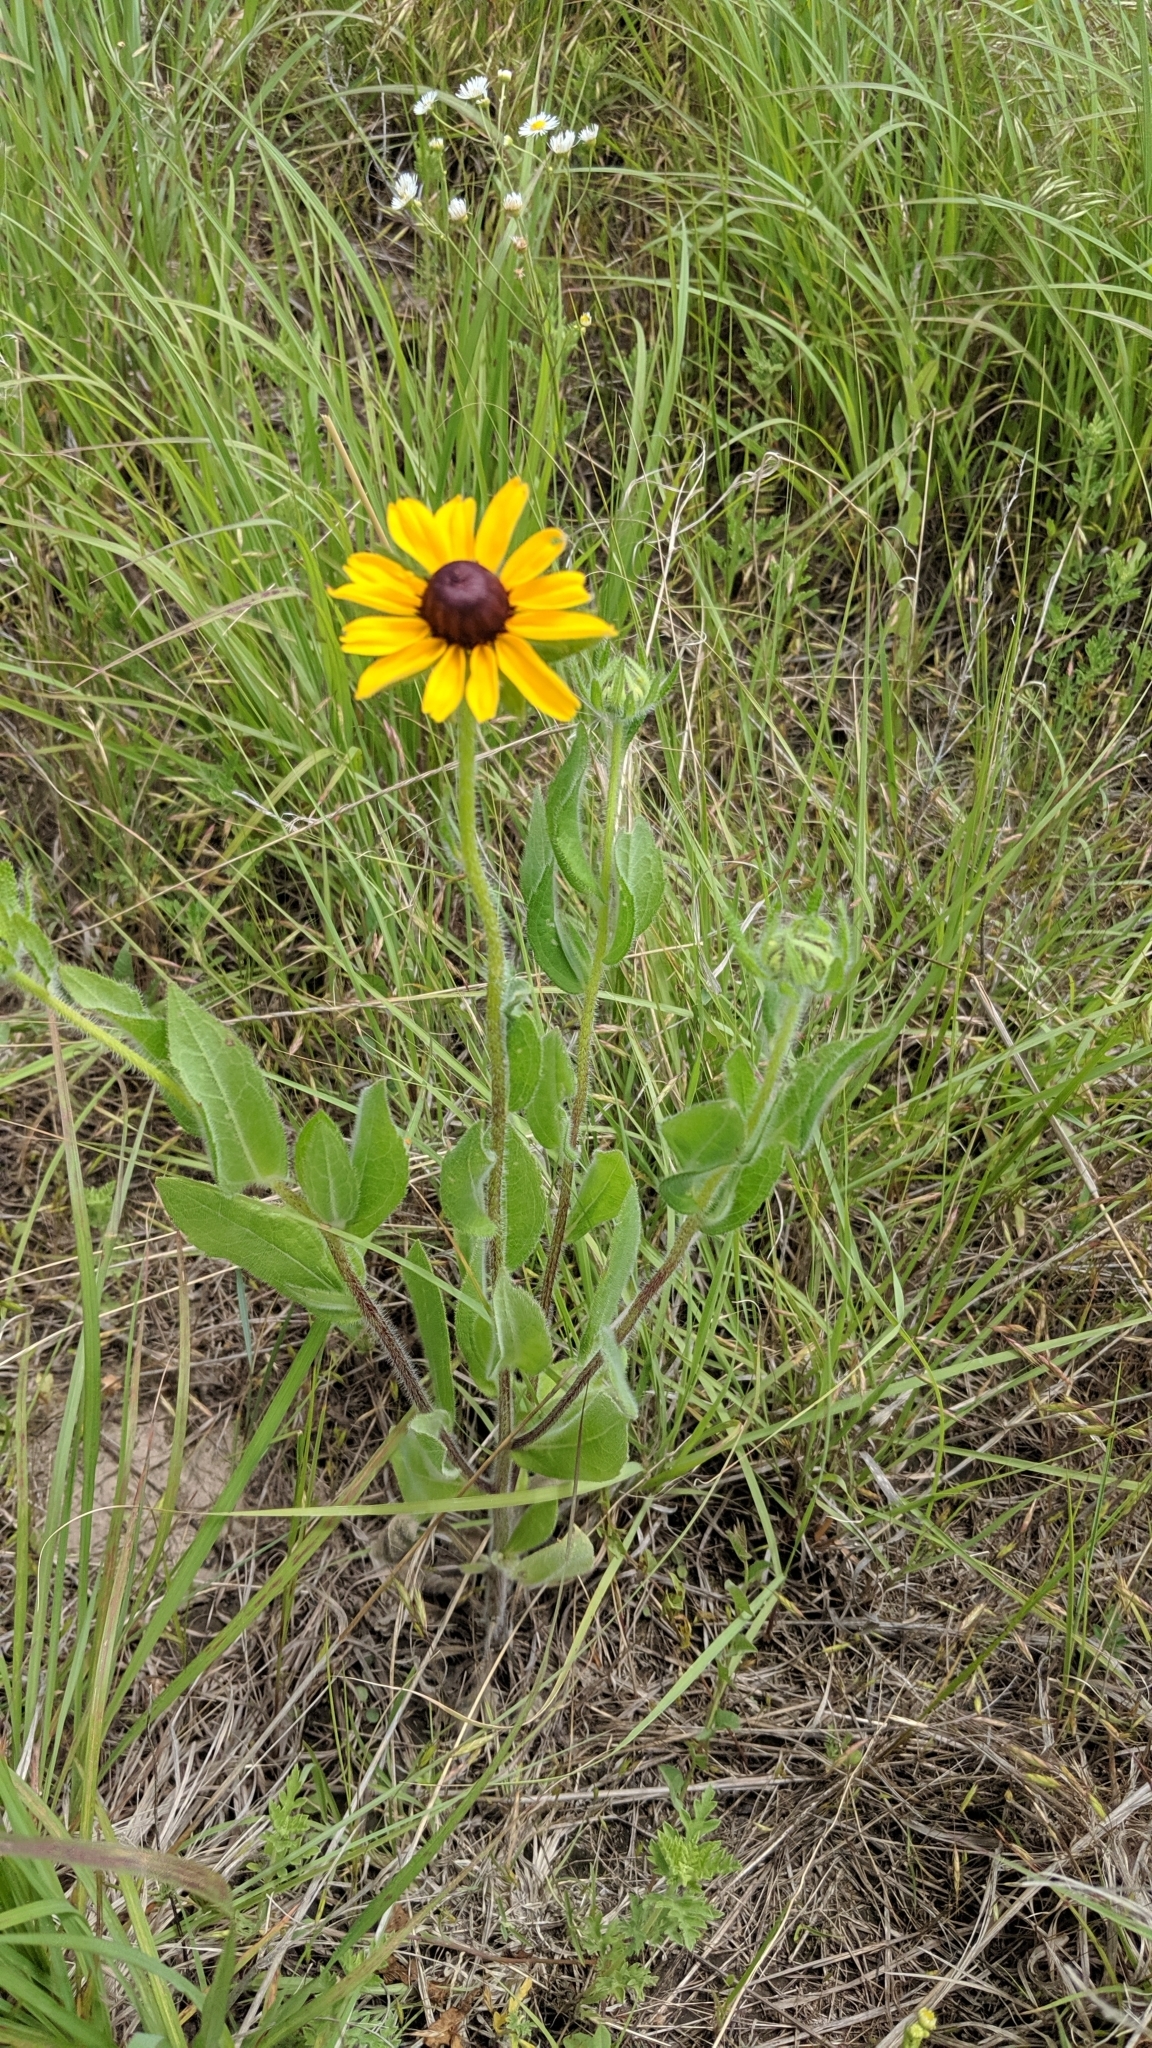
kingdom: Plantae
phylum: Tracheophyta
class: Magnoliopsida
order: Asterales
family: Asteraceae
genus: Rudbeckia
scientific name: Rudbeckia hirta
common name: Black-eyed-susan
